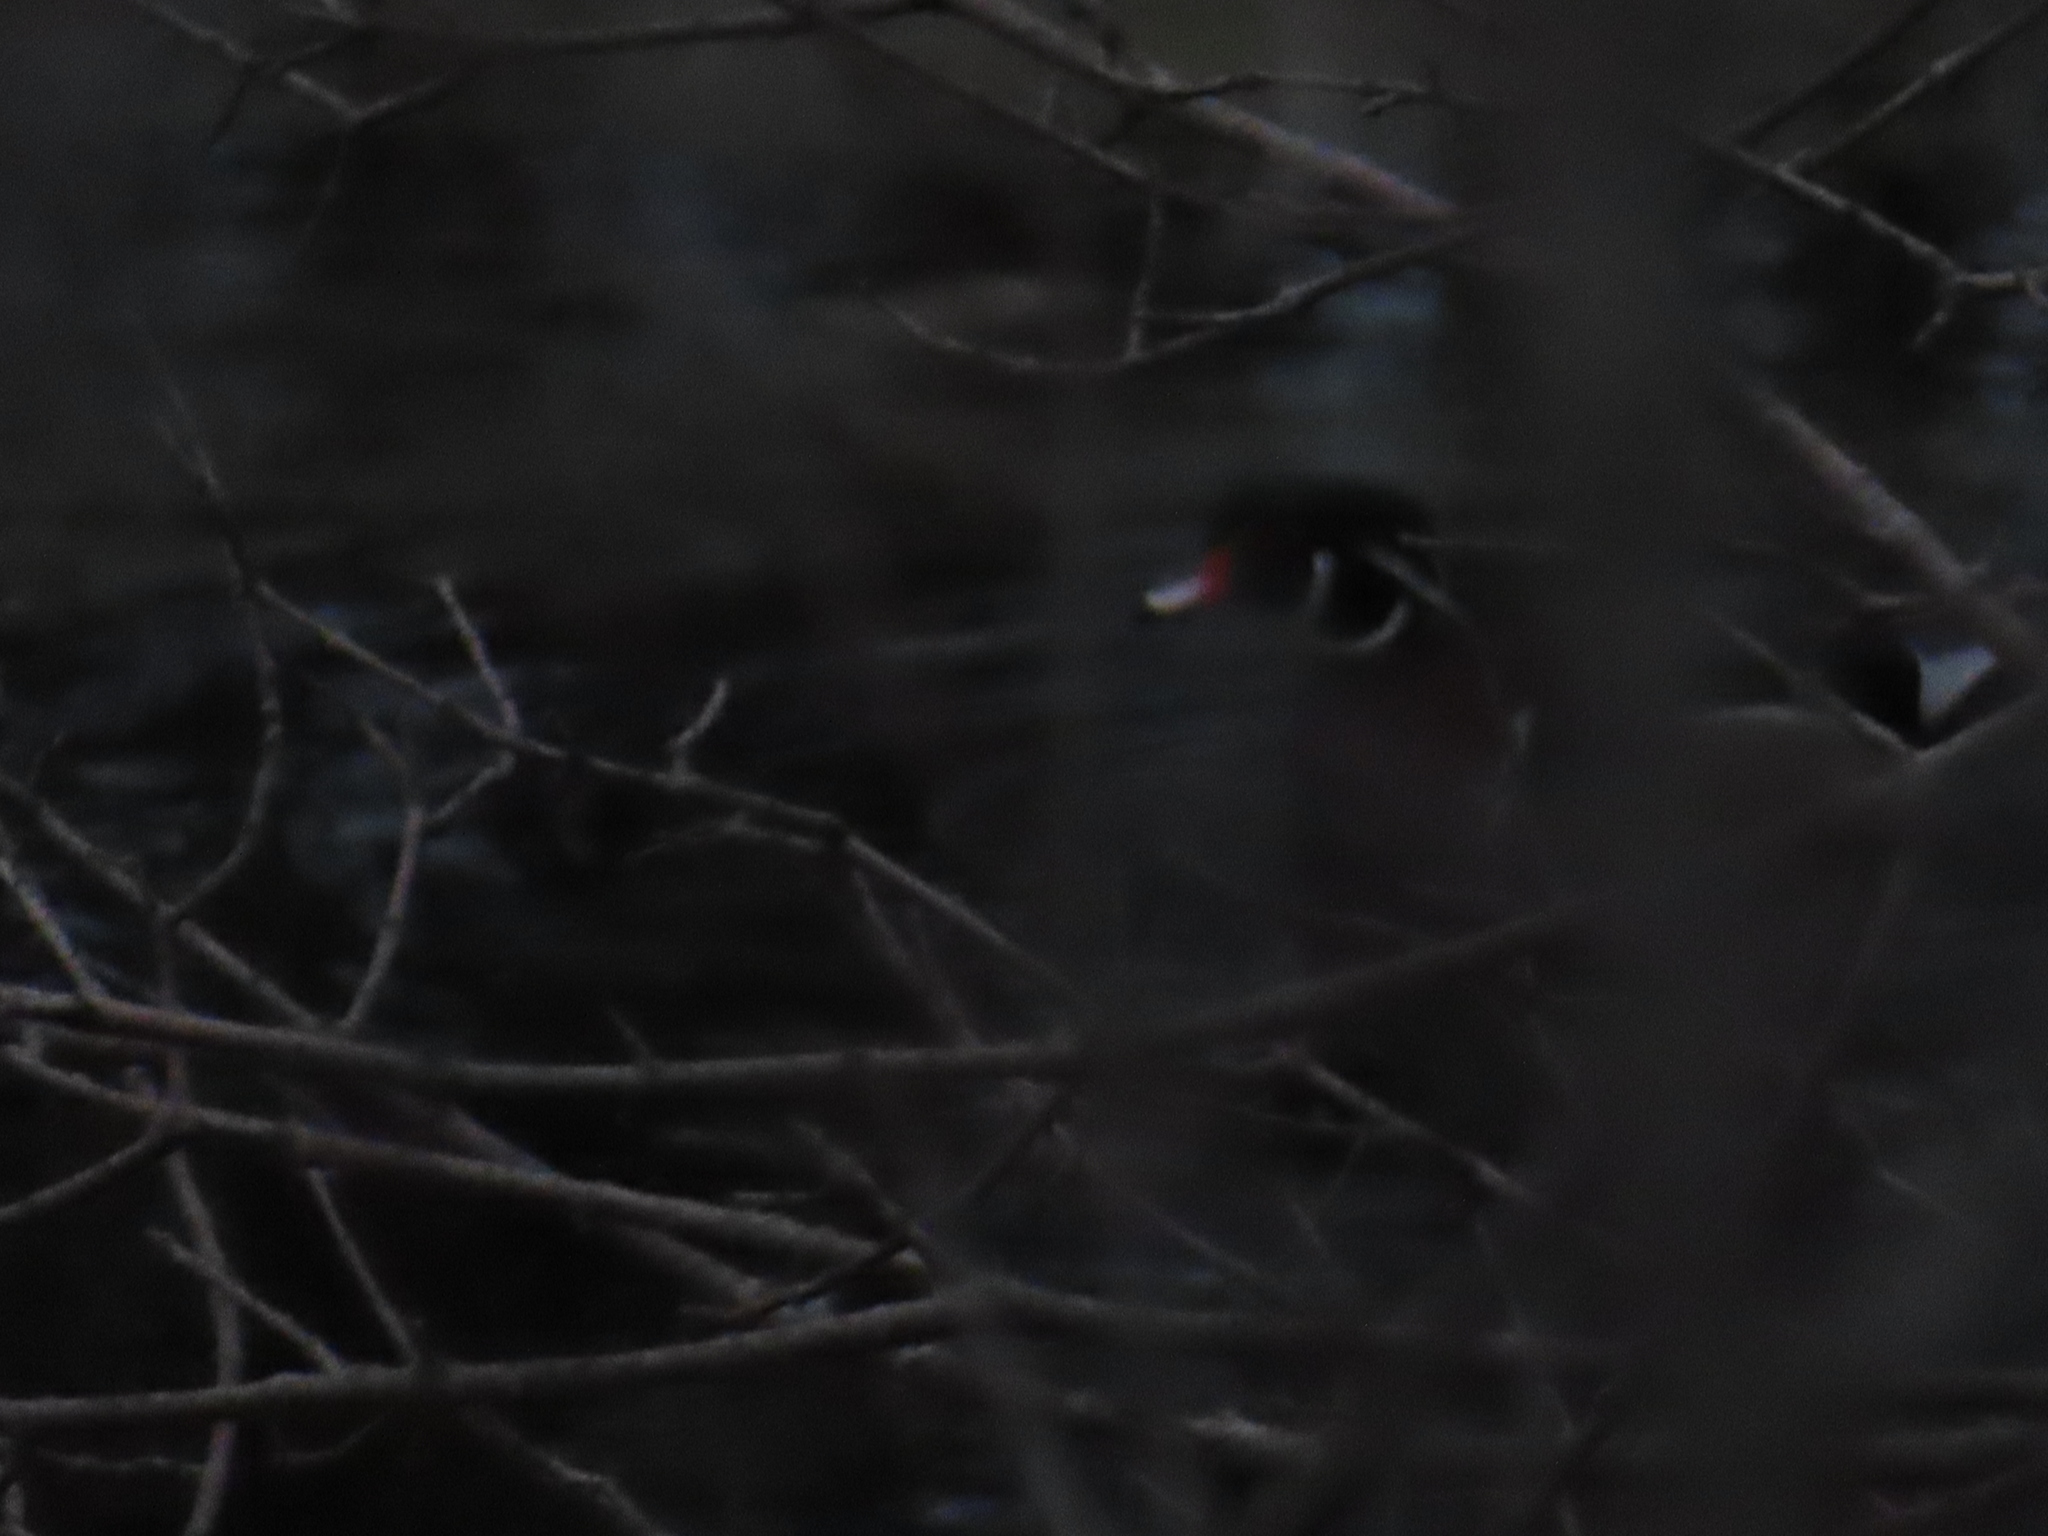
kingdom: Animalia
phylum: Chordata
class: Aves
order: Anseriformes
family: Anatidae
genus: Aix
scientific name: Aix sponsa
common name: Wood duck
